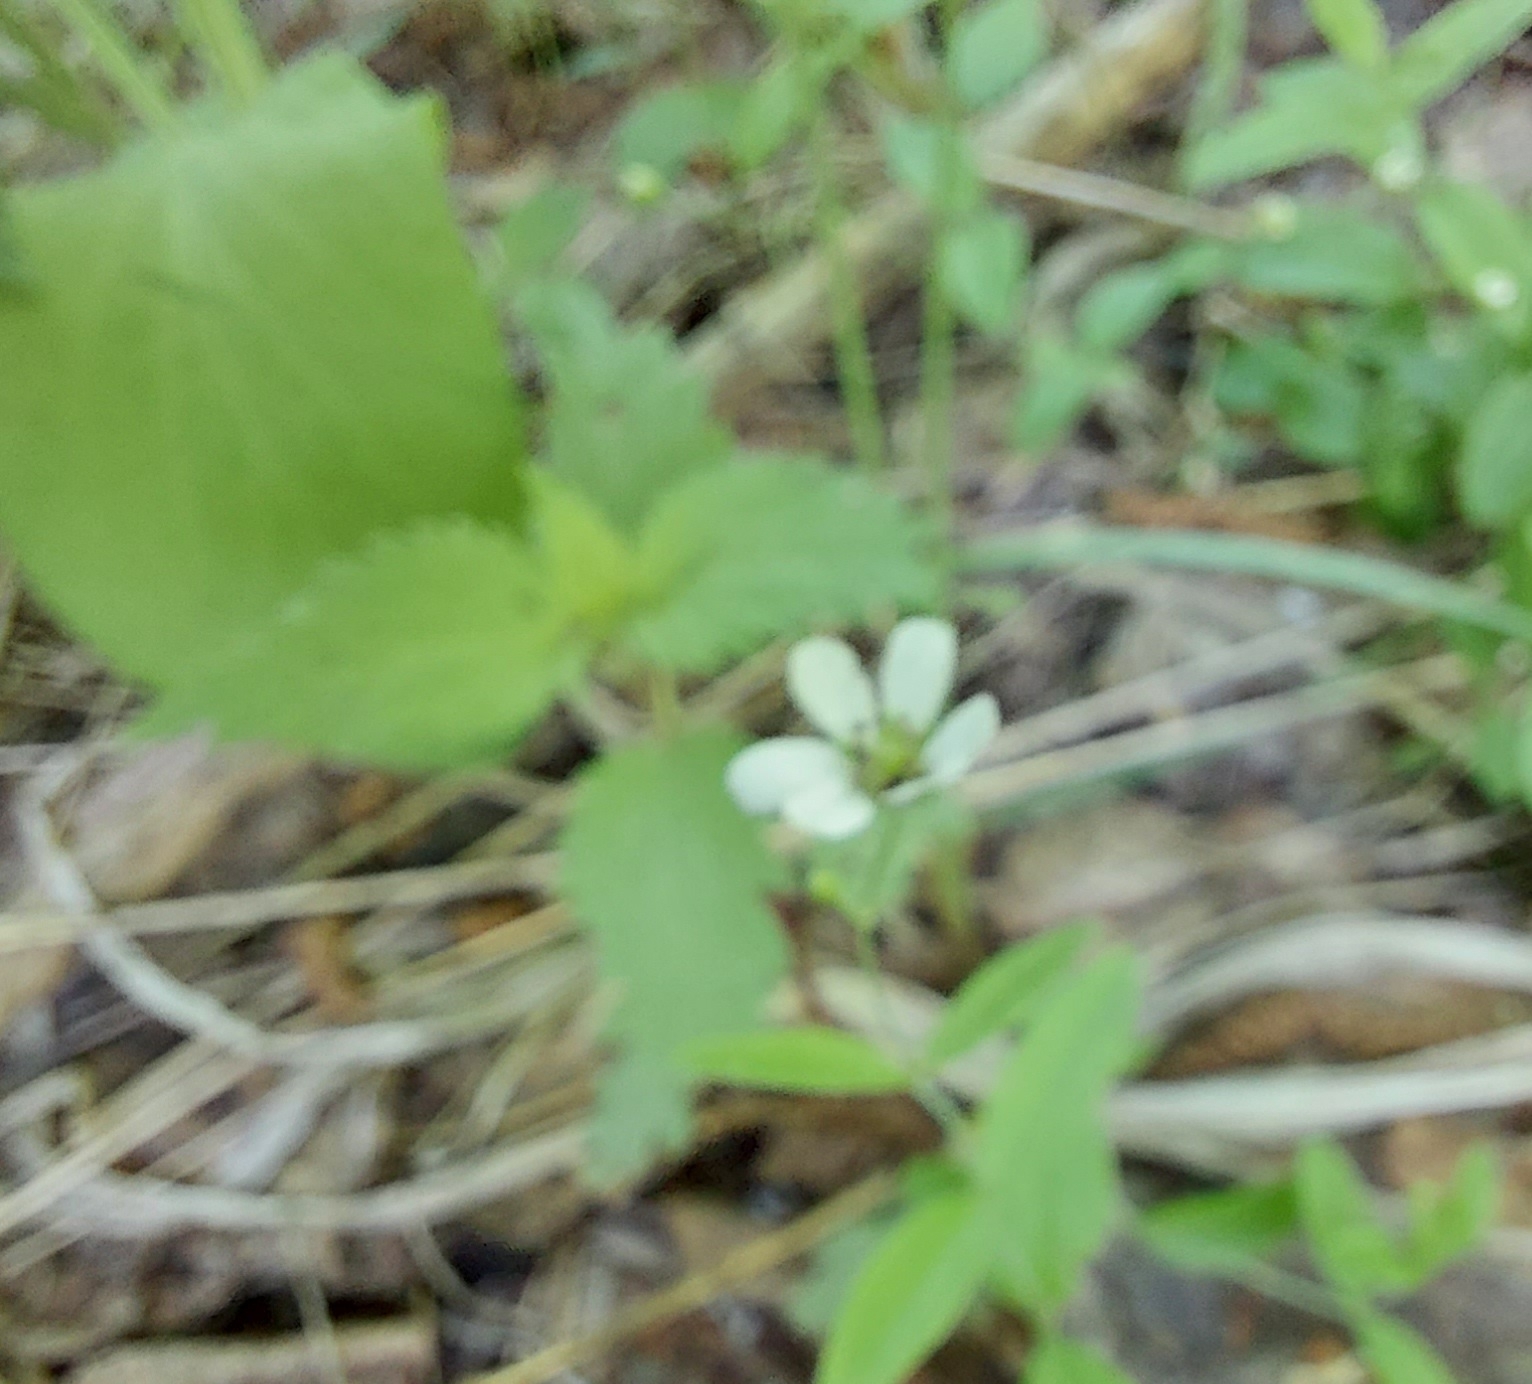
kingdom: Plantae
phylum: Tracheophyta
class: Magnoliopsida
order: Caryophyllales
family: Caryophyllaceae
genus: Moehringia
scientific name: Moehringia lateriflora
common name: Blunt-leaved sandwort
